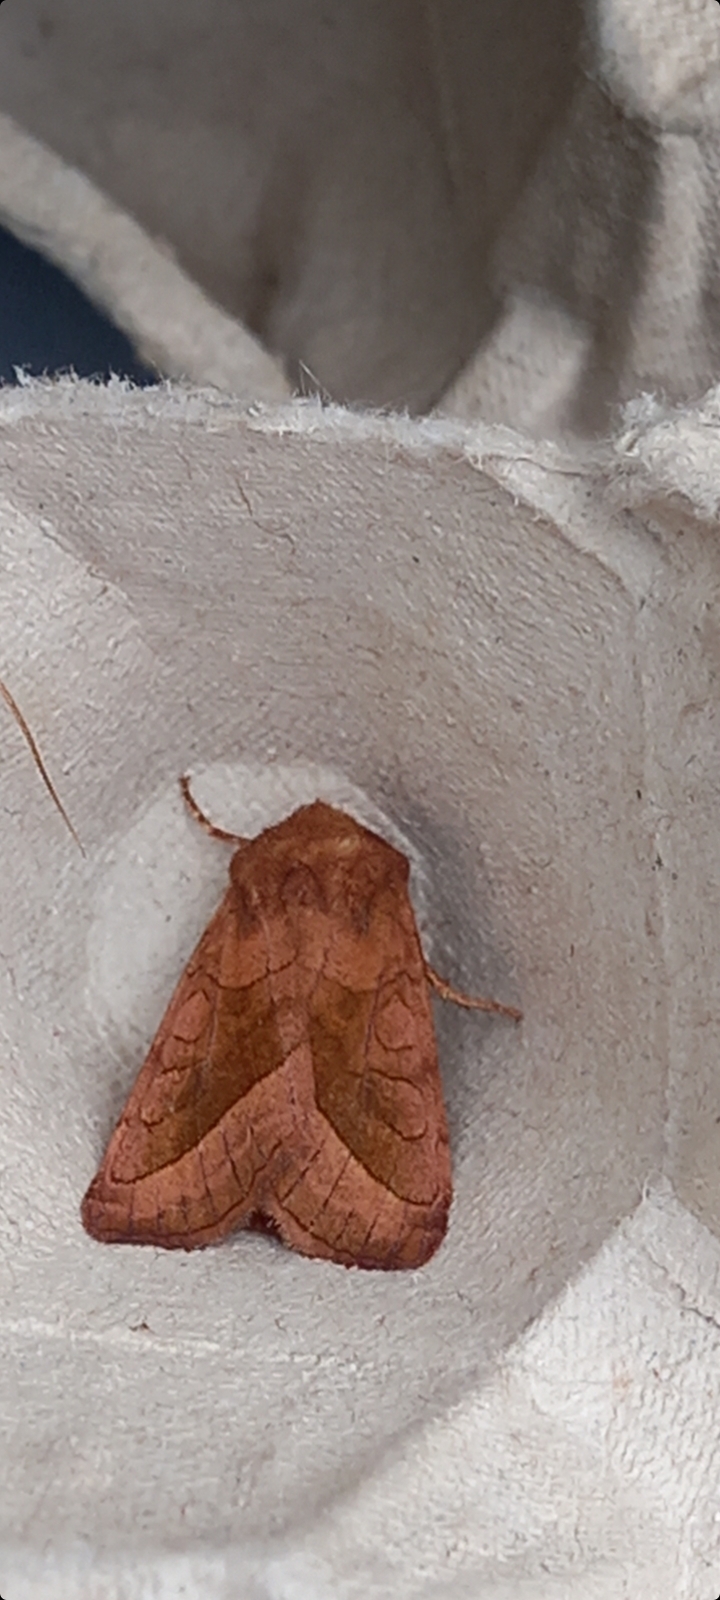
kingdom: Animalia
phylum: Arthropoda
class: Insecta
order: Lepidoptera
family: Noctuidae
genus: Hydraecia
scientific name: Hydraecia micacea
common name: Rosy rustic
